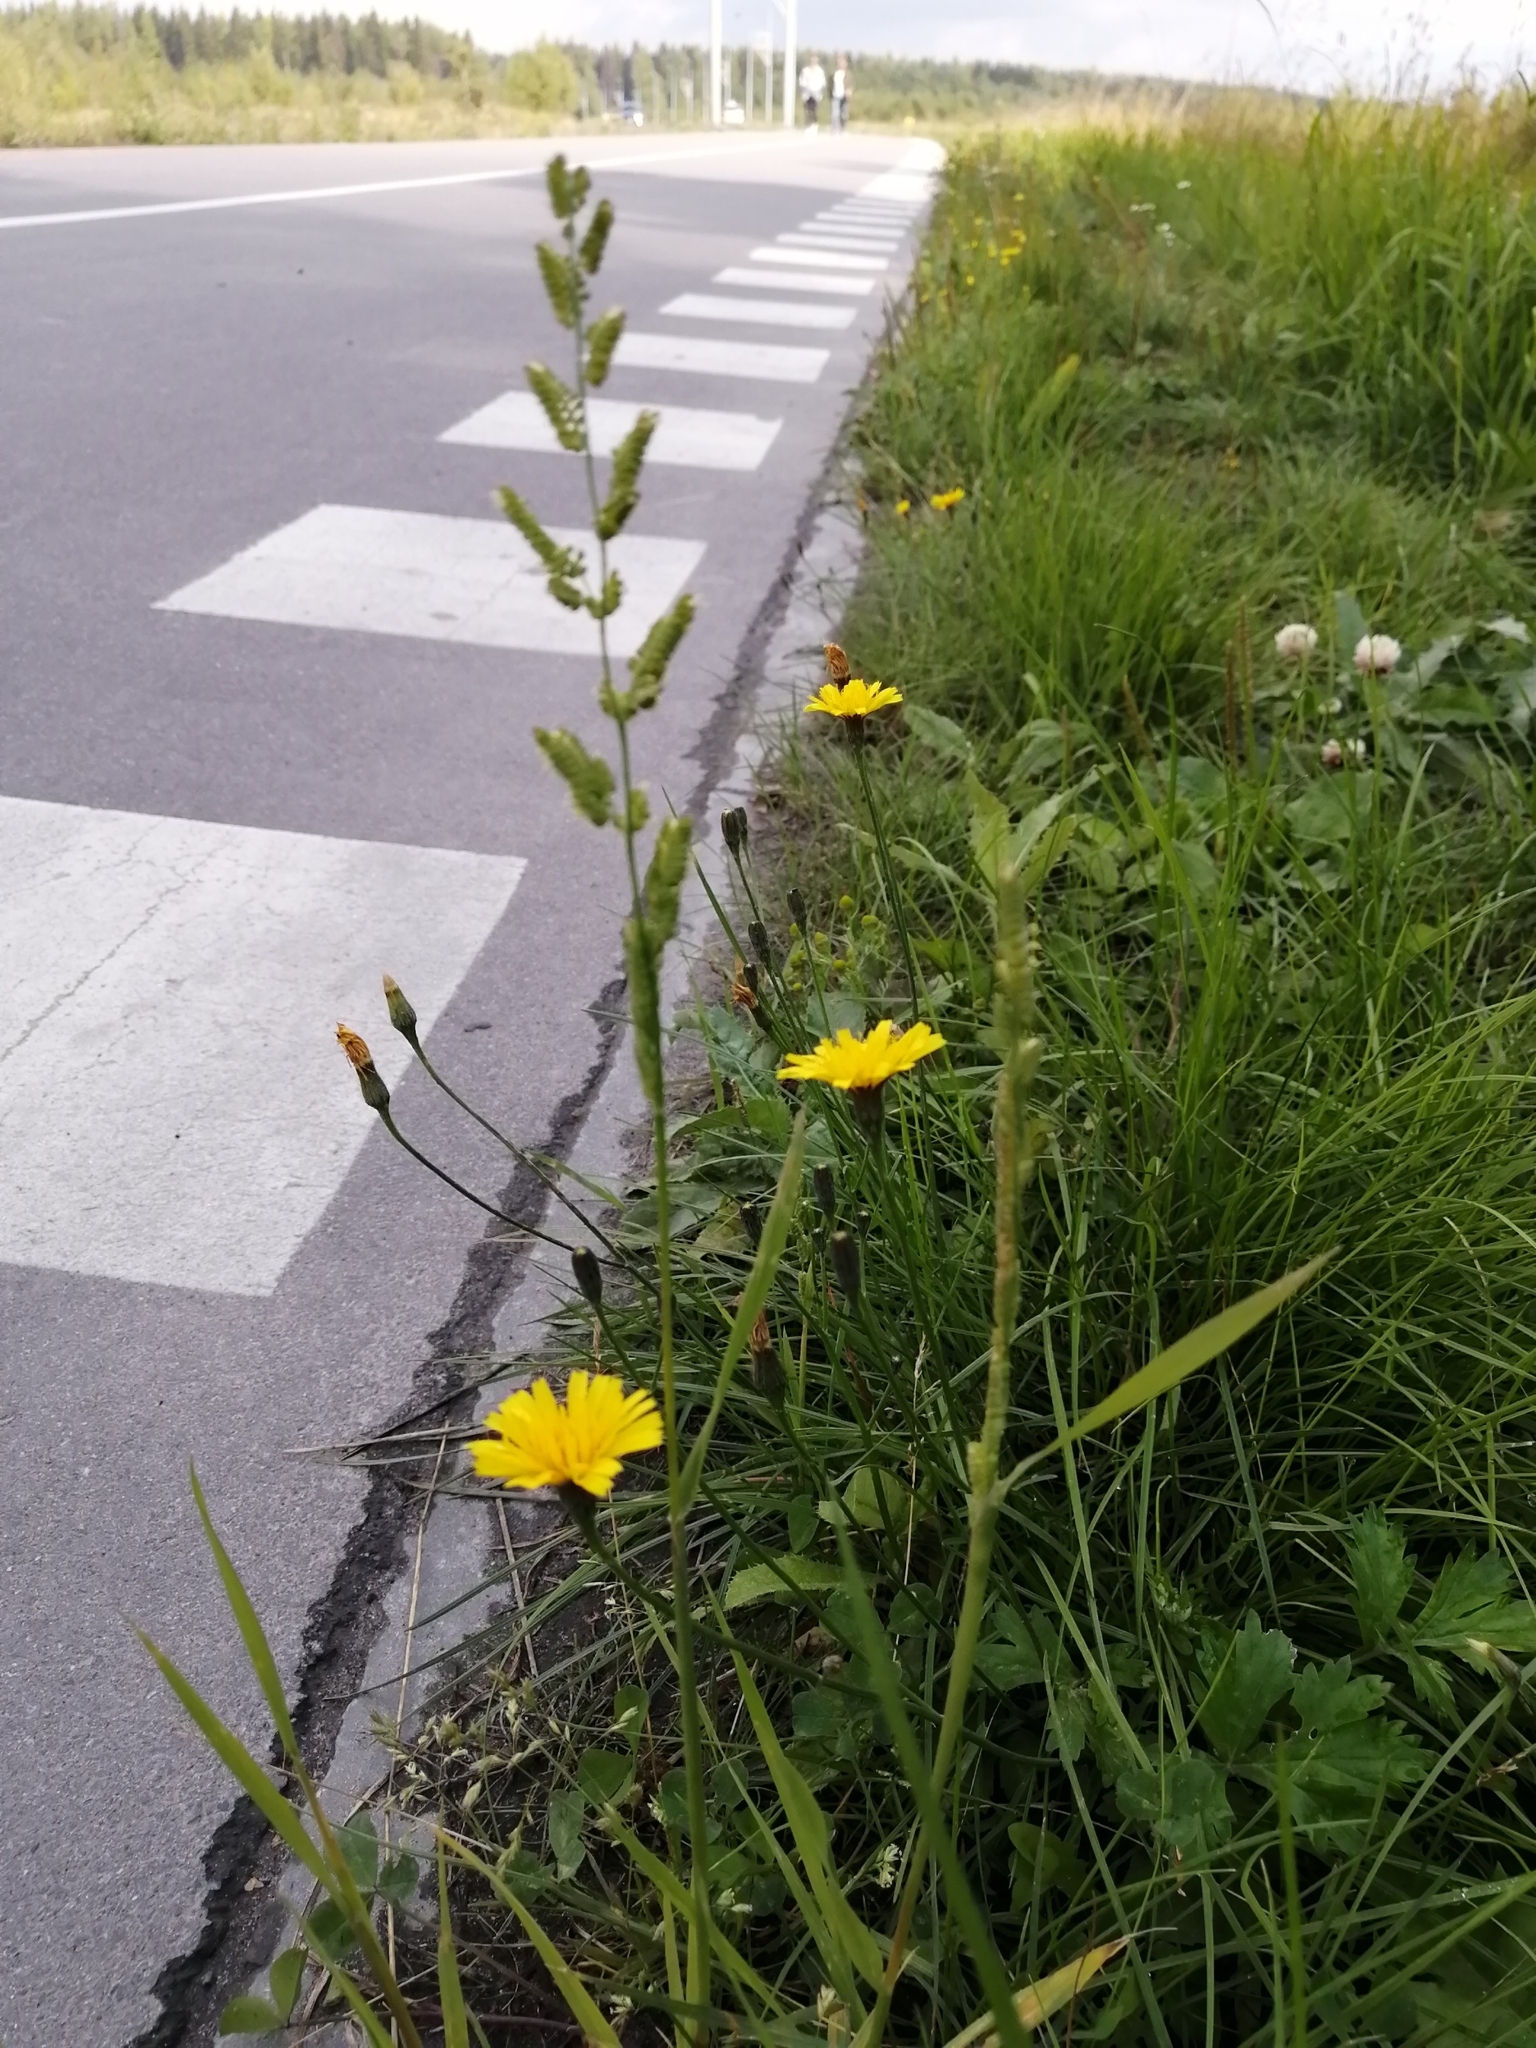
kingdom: Plantae
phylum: Tracheophyta
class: Magnoliopsida
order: Asterales
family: Asteraceae
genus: Scorzoneroides
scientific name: Scorzoneroides autumnalis
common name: Autumn hawkbit
